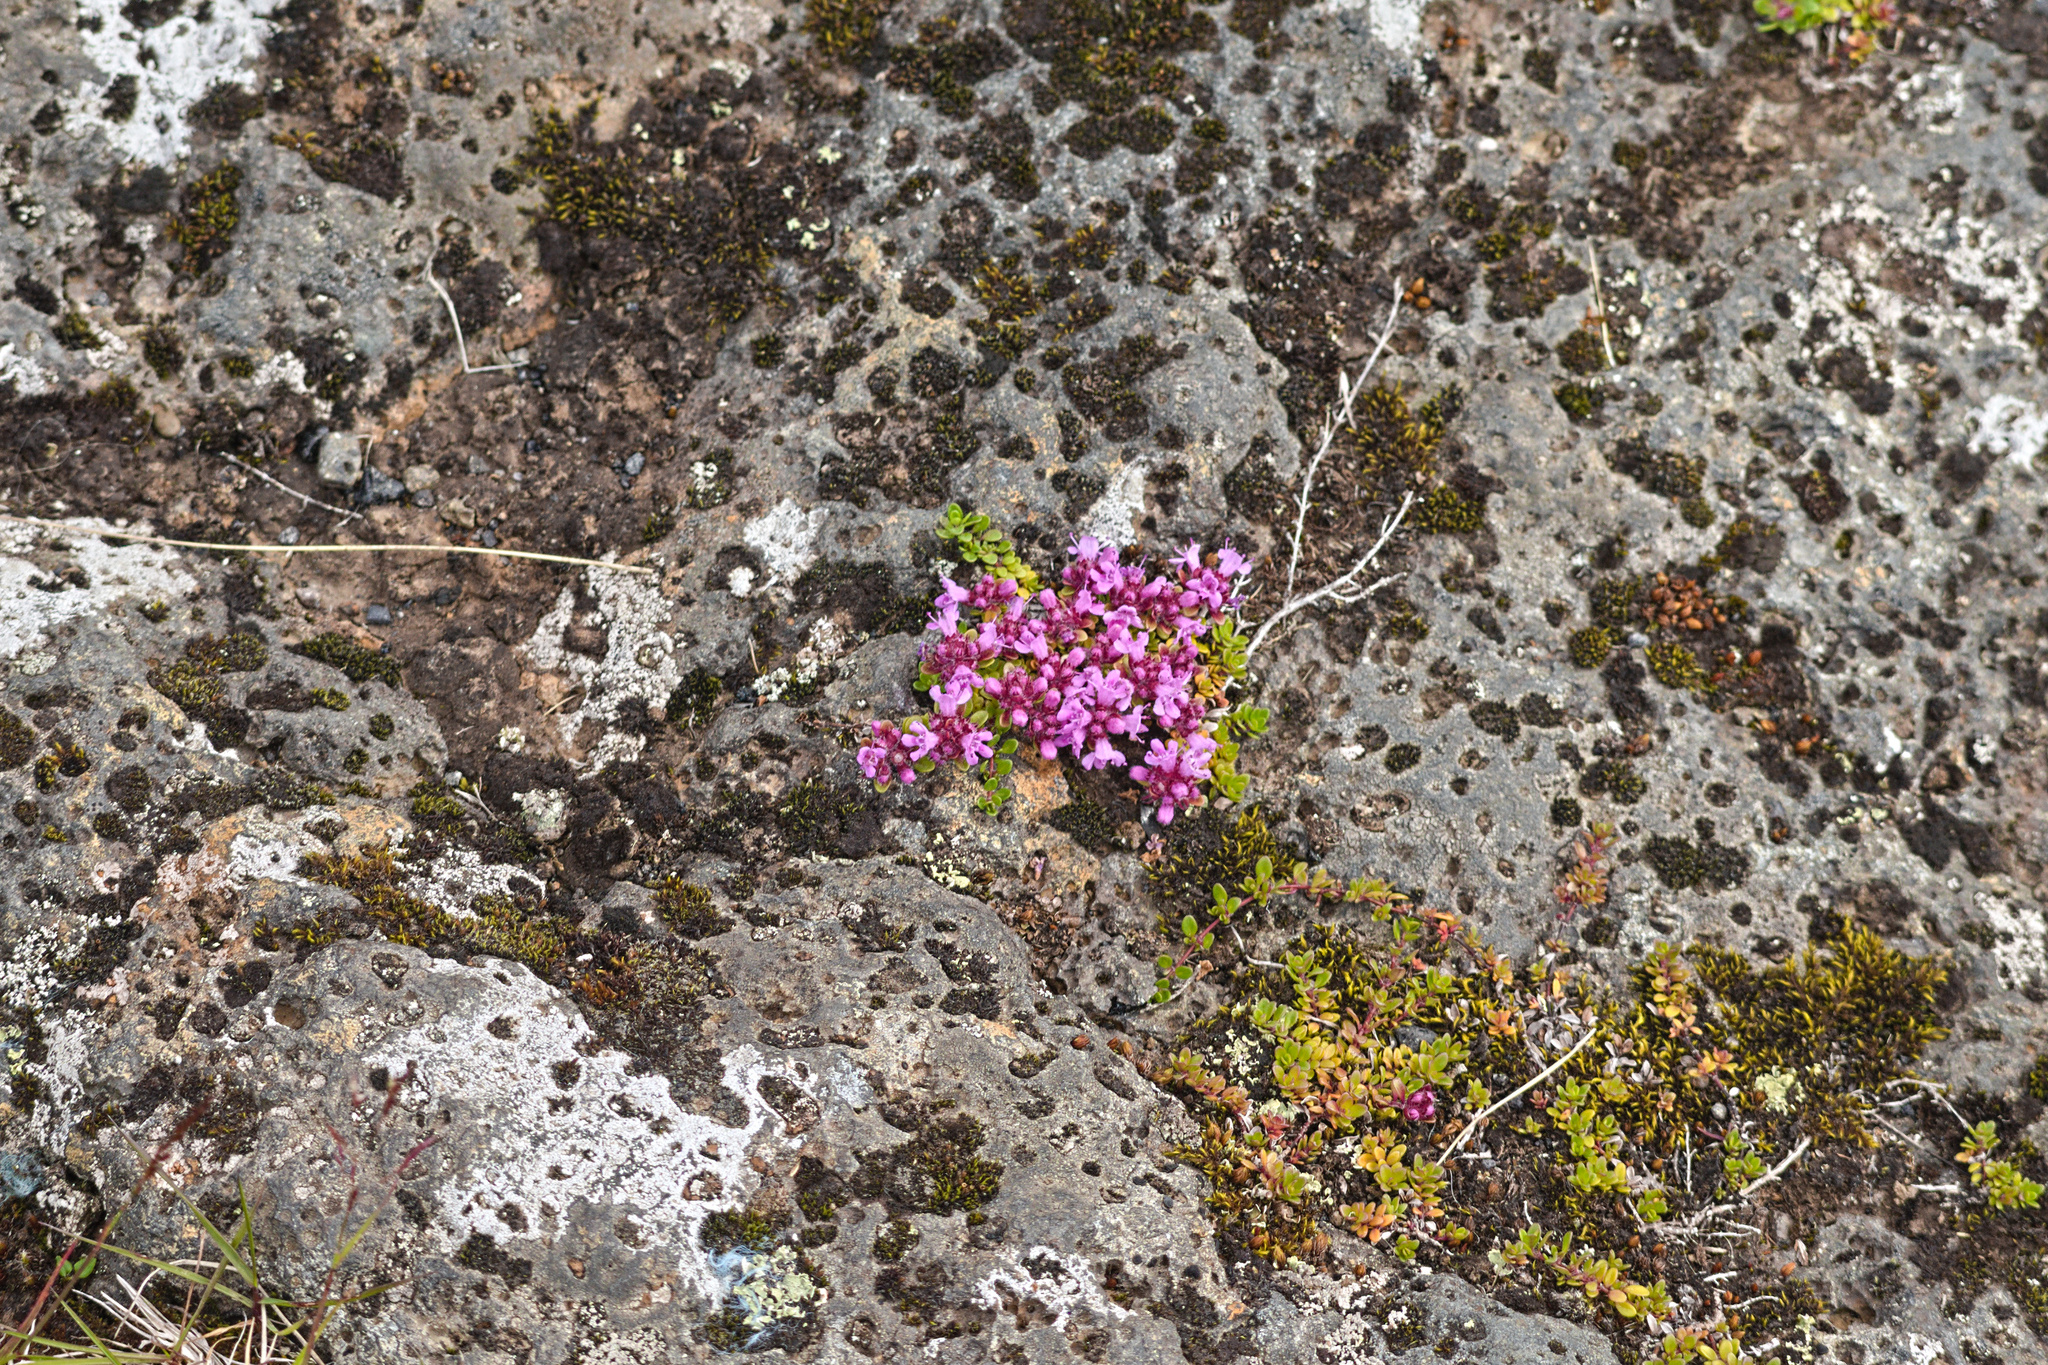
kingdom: Plantae
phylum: Tracheophyta
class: Magnoliopsida
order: Lamiales
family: Lamiaceae
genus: Thymus
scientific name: Thymus praecox
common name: Wild thyme
